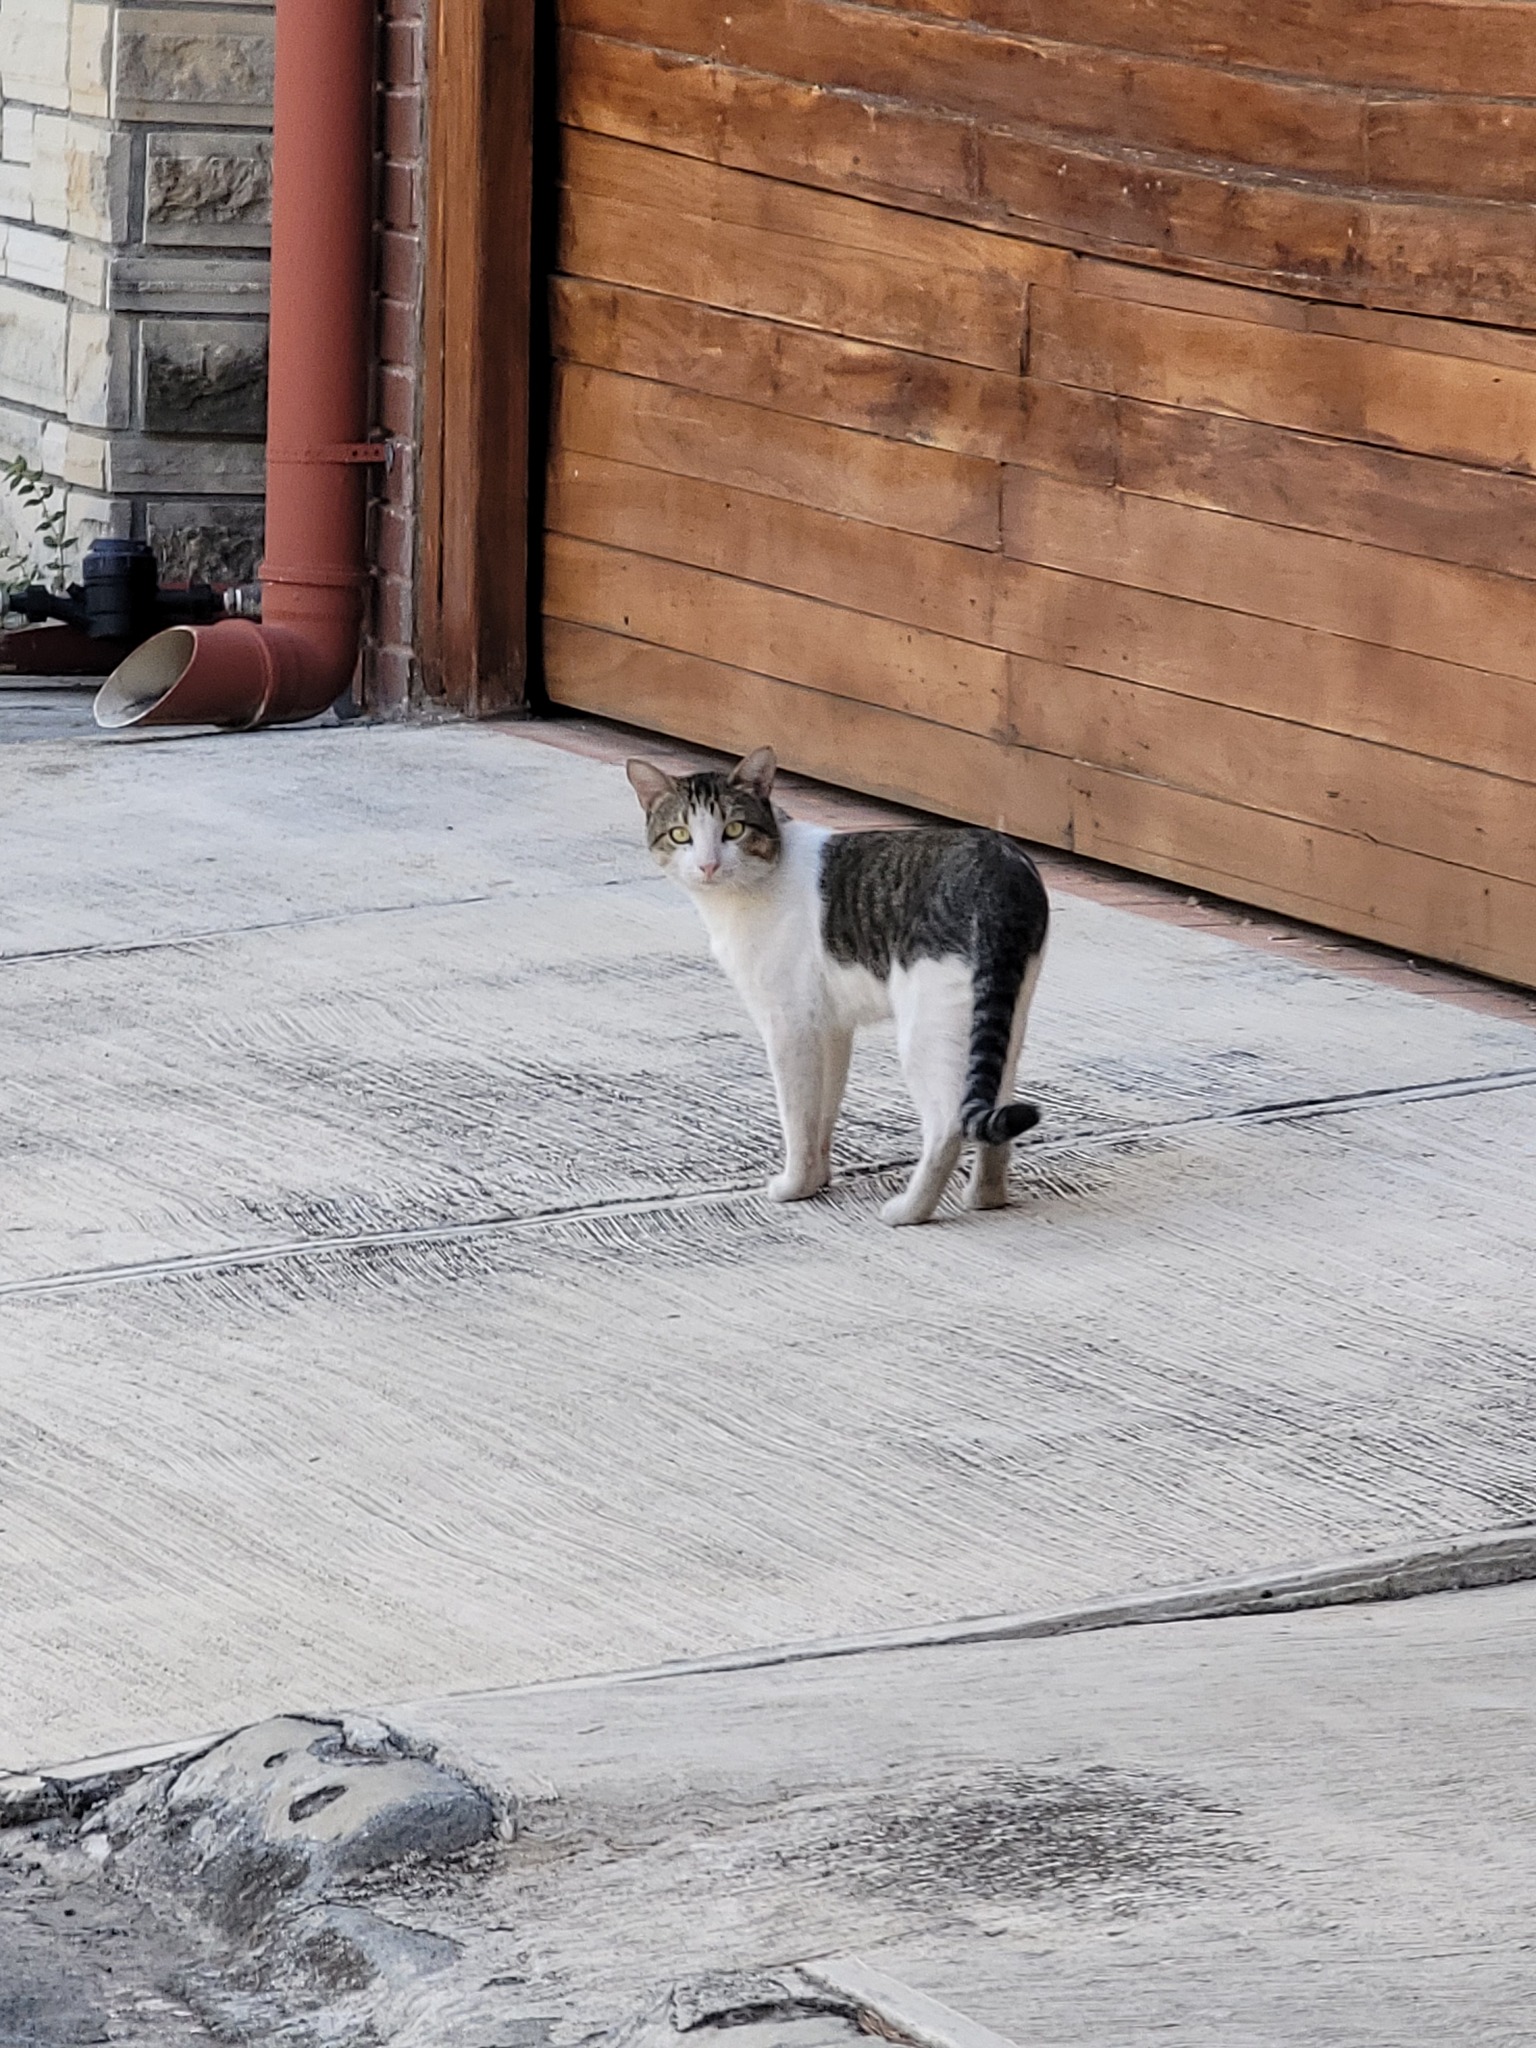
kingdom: Animalia
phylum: Chordata
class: Mammalia
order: Carnivora
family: Felidae
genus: Felis
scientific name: Felis catus
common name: Domestic cat
